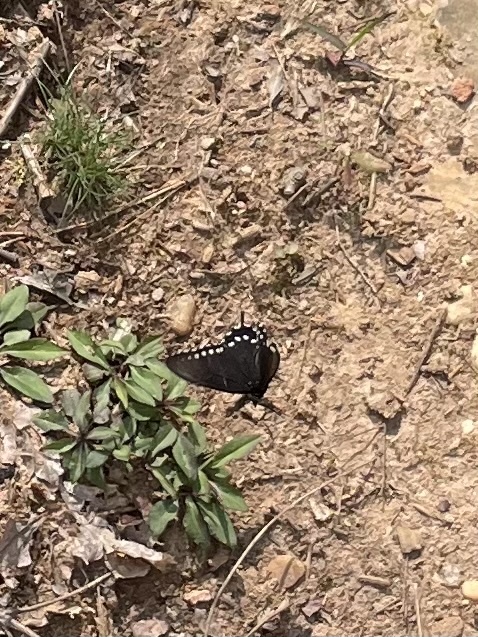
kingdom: Animalia
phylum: Arthropoda
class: Insecta
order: Lepidoptera
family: Papilionidae
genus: Battus
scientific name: Battus philenor
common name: Pipevine swallowtail
